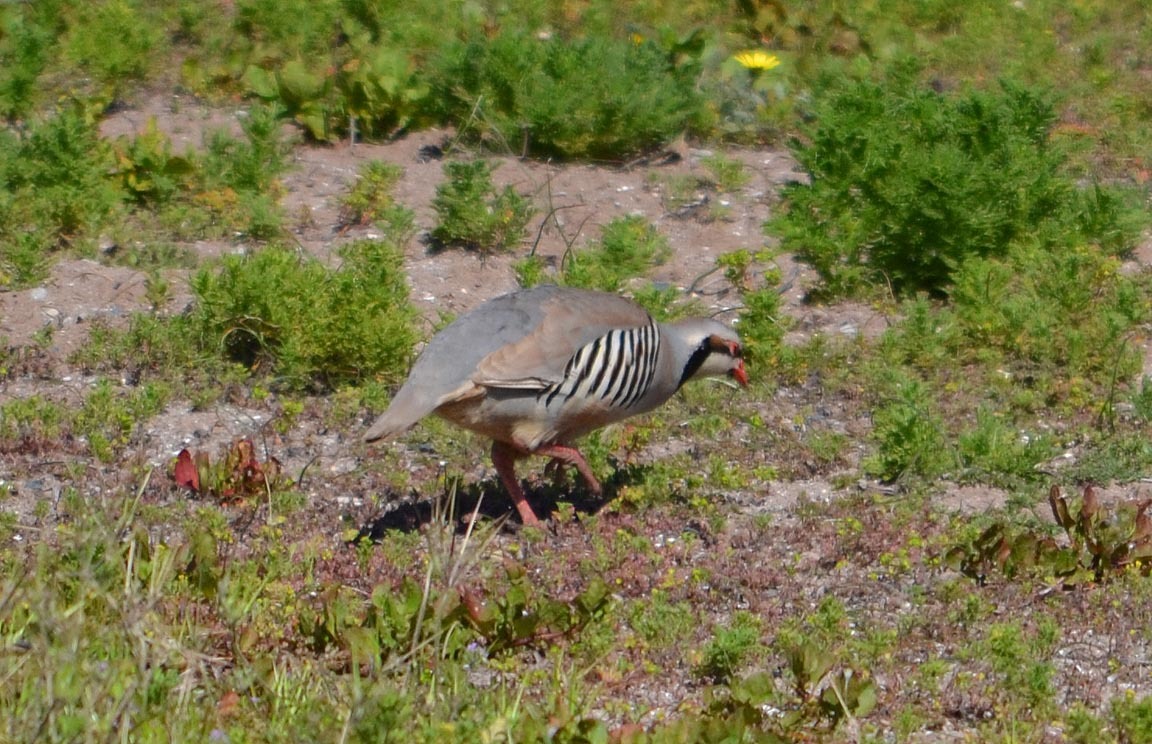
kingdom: Animalia
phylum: Chordata
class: Aves
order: Galliformes
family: Phasianidae
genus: Alectoris
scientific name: Alectoris chukar
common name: Chukar
